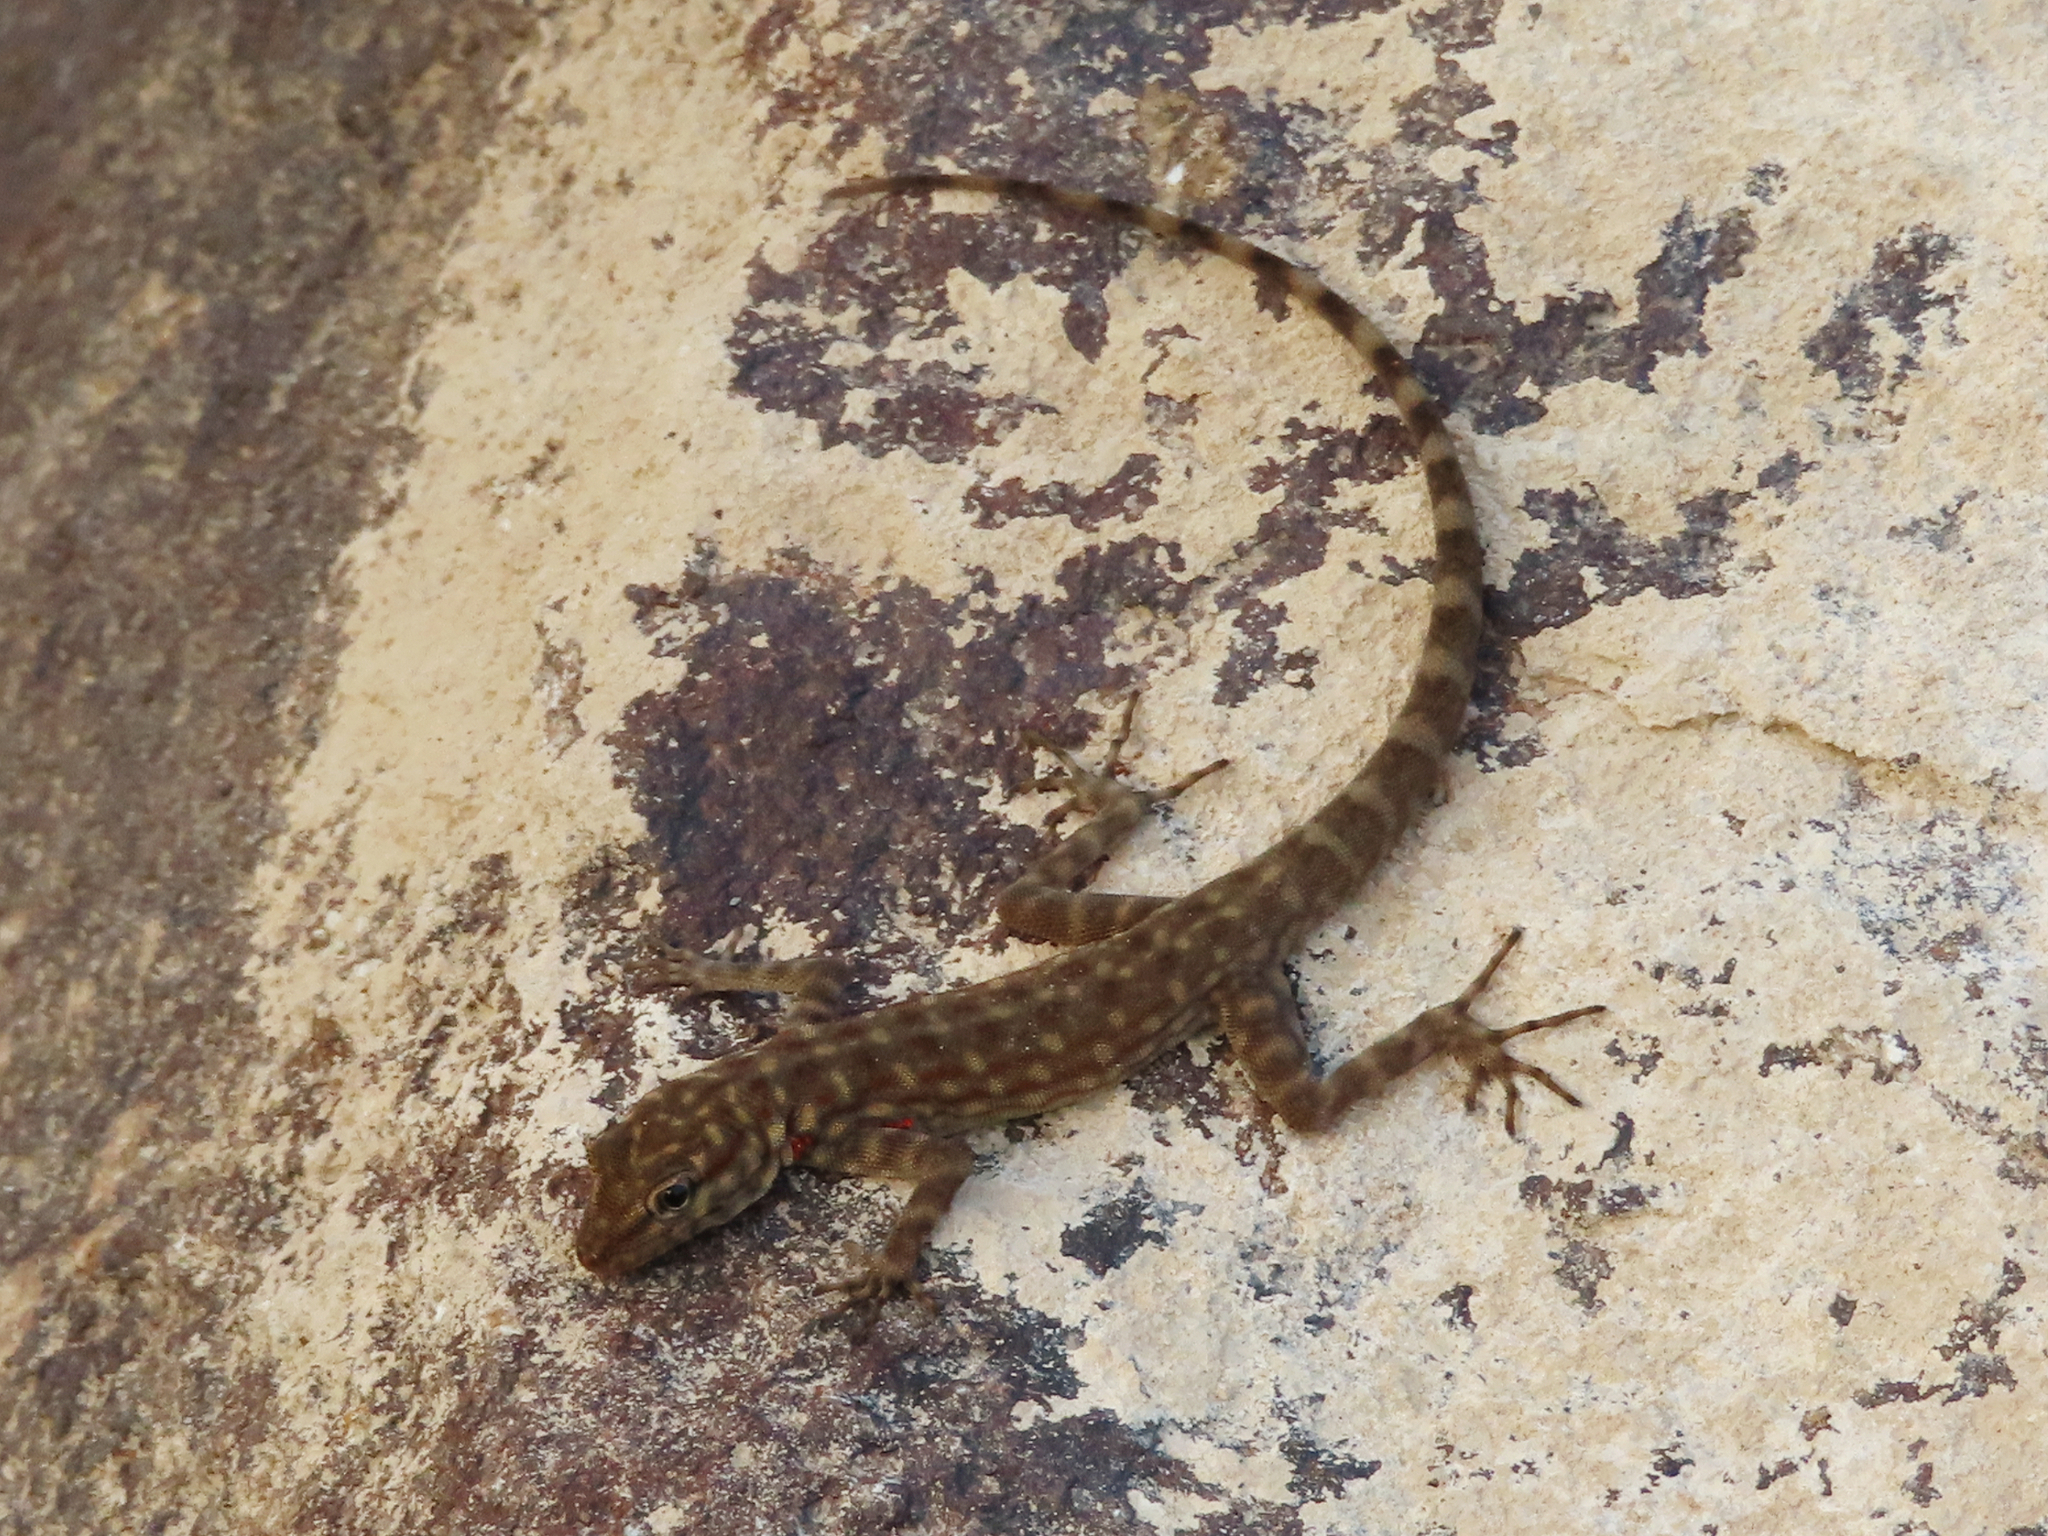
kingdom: Animalia
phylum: Chordata
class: Squamata
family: Sphaerodactylidae
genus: Pristurus
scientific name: Pristurus celerrimus
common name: Bar-tailed semaphore gecko
